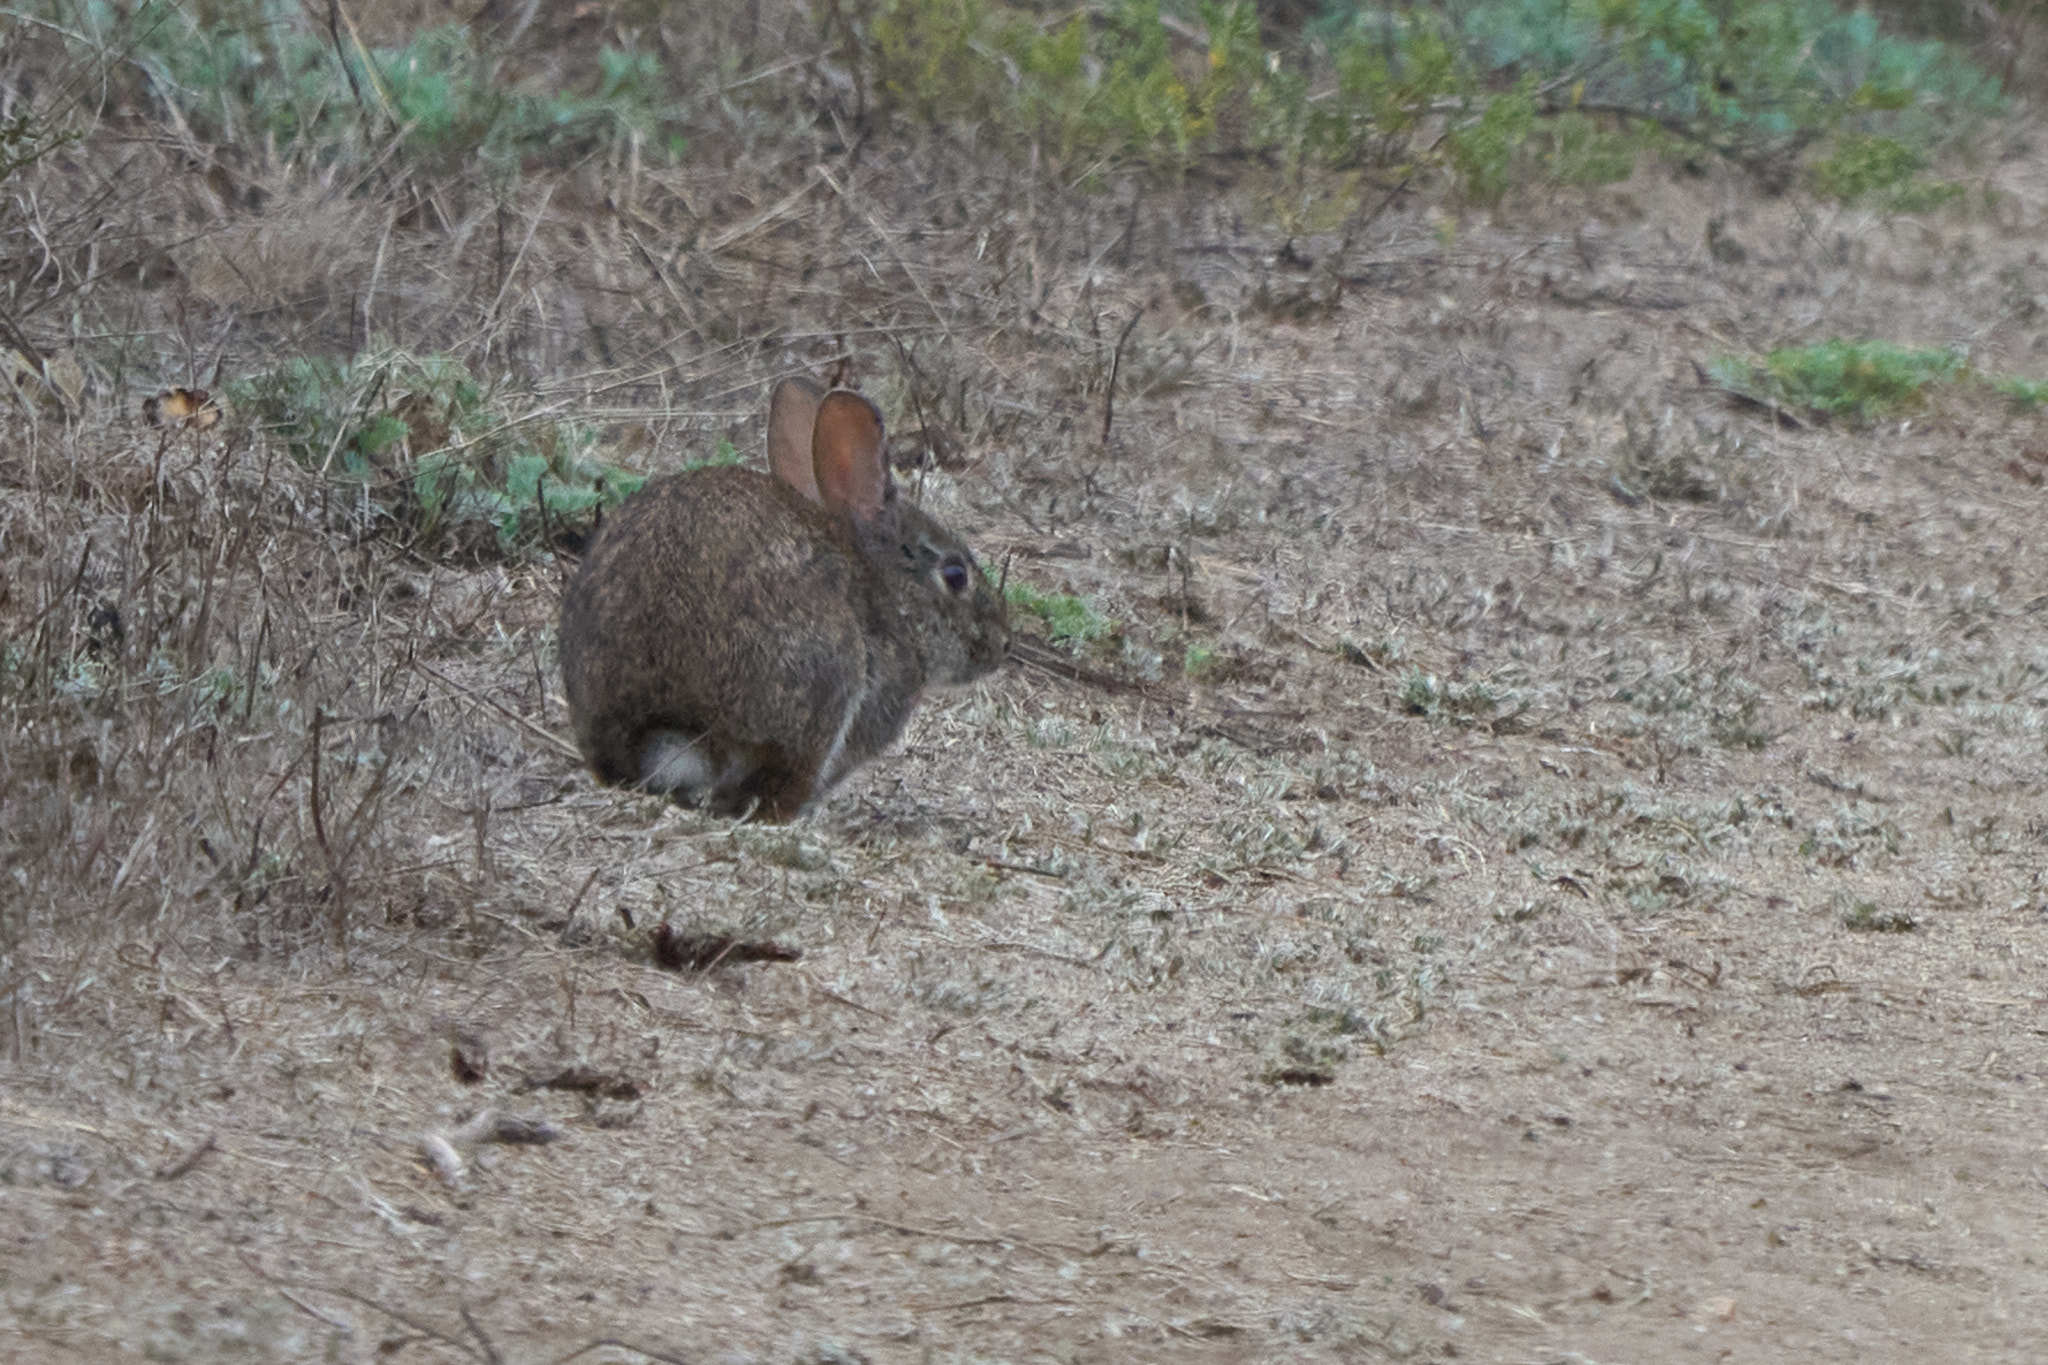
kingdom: Animalia
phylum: Chordata
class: Mammalia
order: Lagomorpha
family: Leporidae
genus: Sylvilagus
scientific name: Sylvilagus bachmani
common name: Brush rabbit
